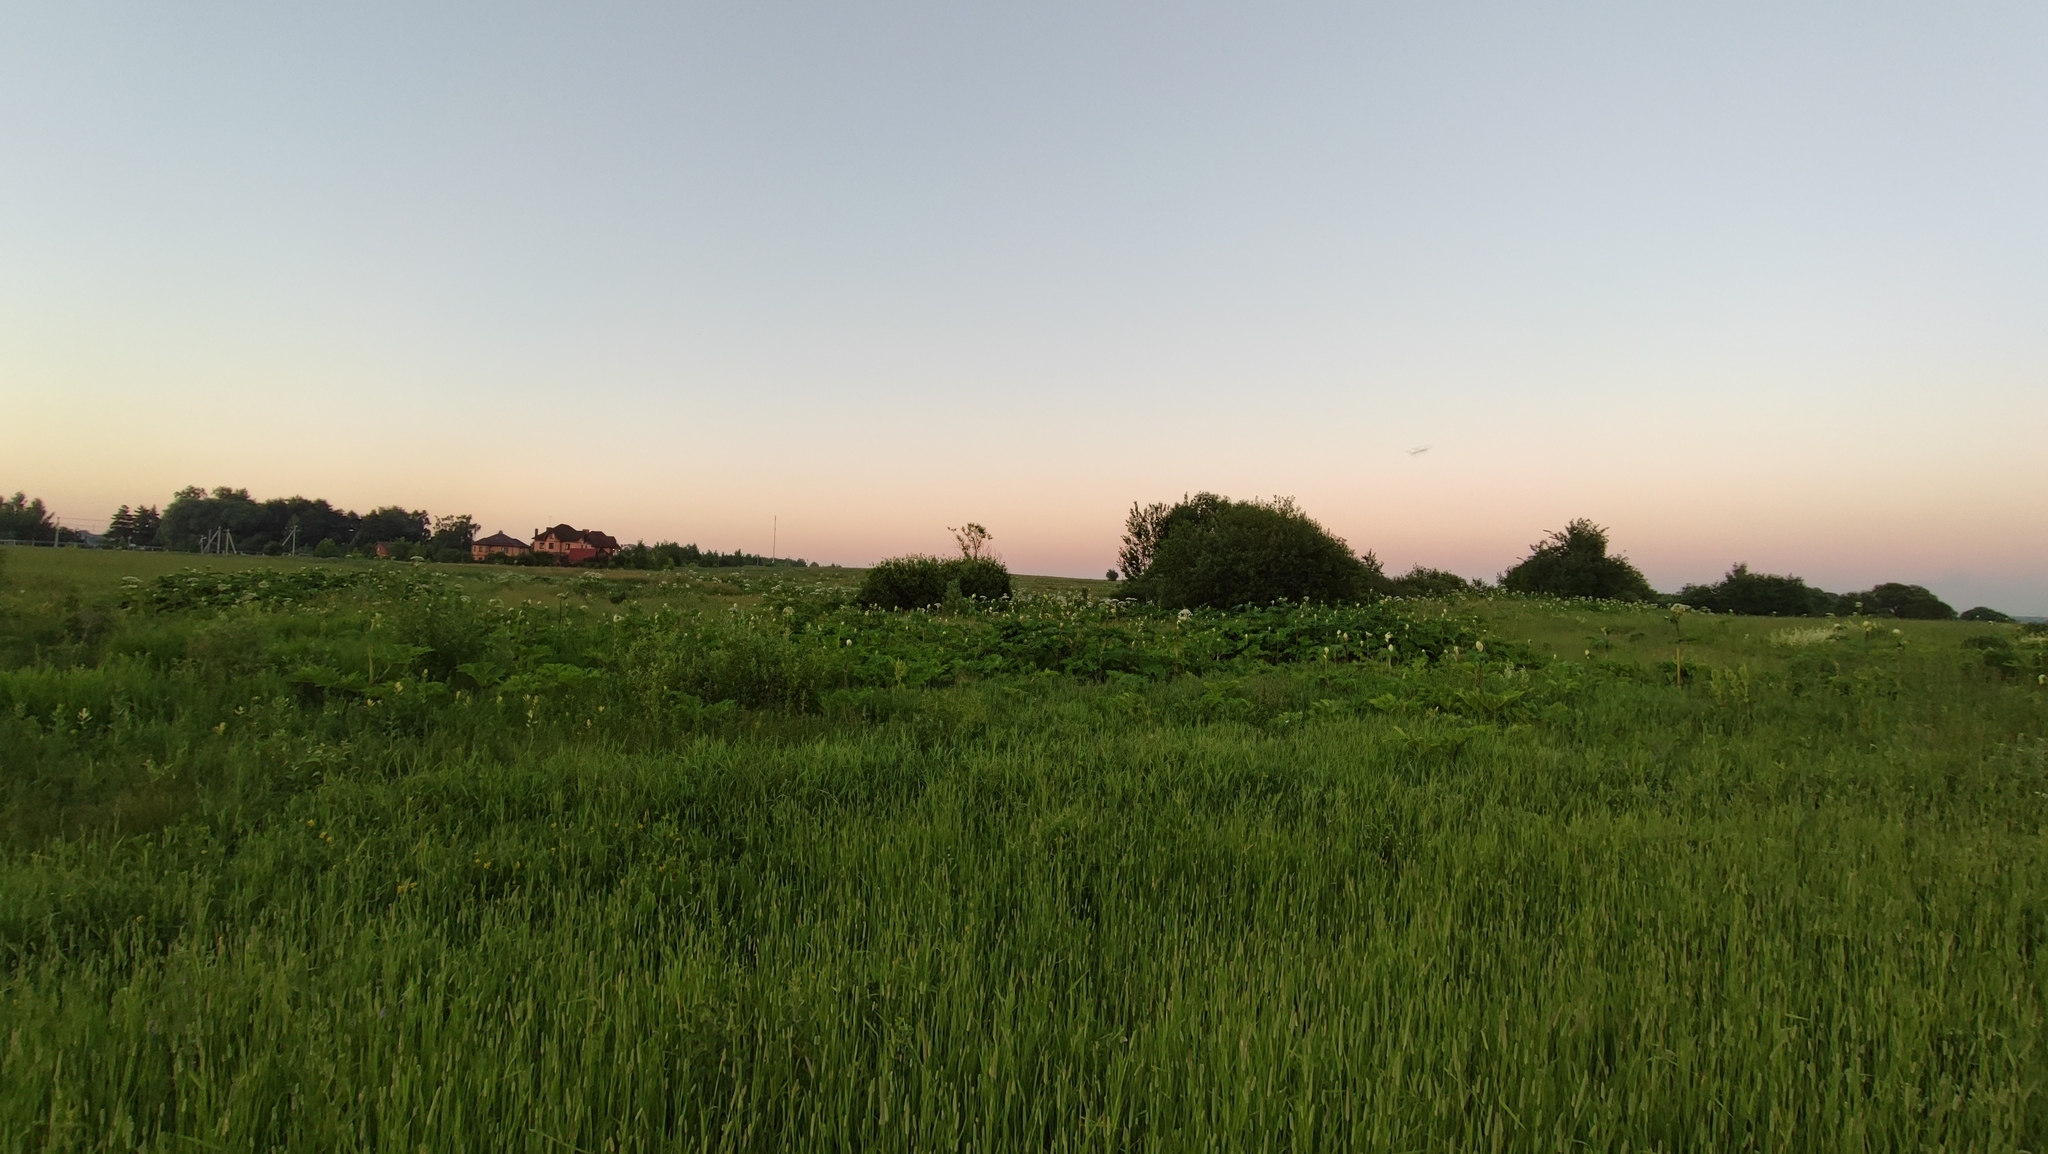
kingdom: Plantae
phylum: Tracheophyta
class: Magnoliopsida
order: Apiales
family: Apiaceae
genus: Heracleum
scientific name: Heracleum sosnowskyi
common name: Sosnowsky's hogweed
